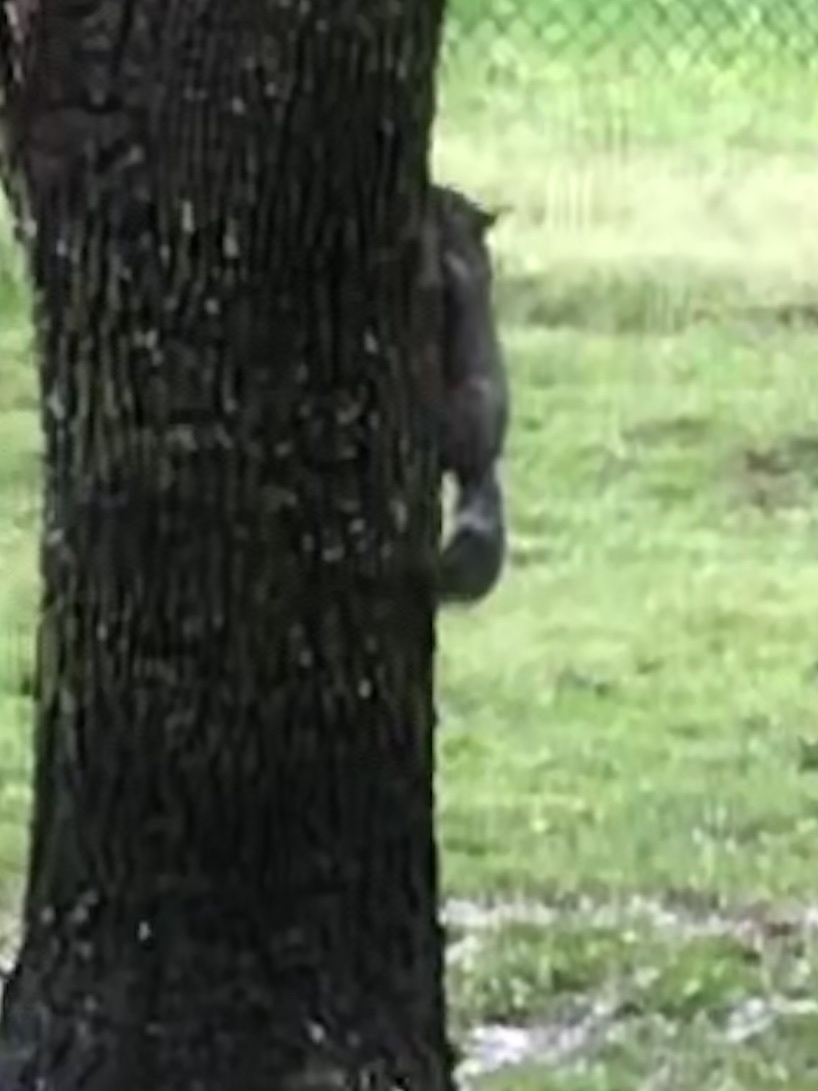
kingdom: Animalia
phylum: Chordata
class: Mammalia
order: Rodentia
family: Sciuridae
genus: Sciurus
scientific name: Sciurus carolinensis
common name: Eastern gray squirrel
